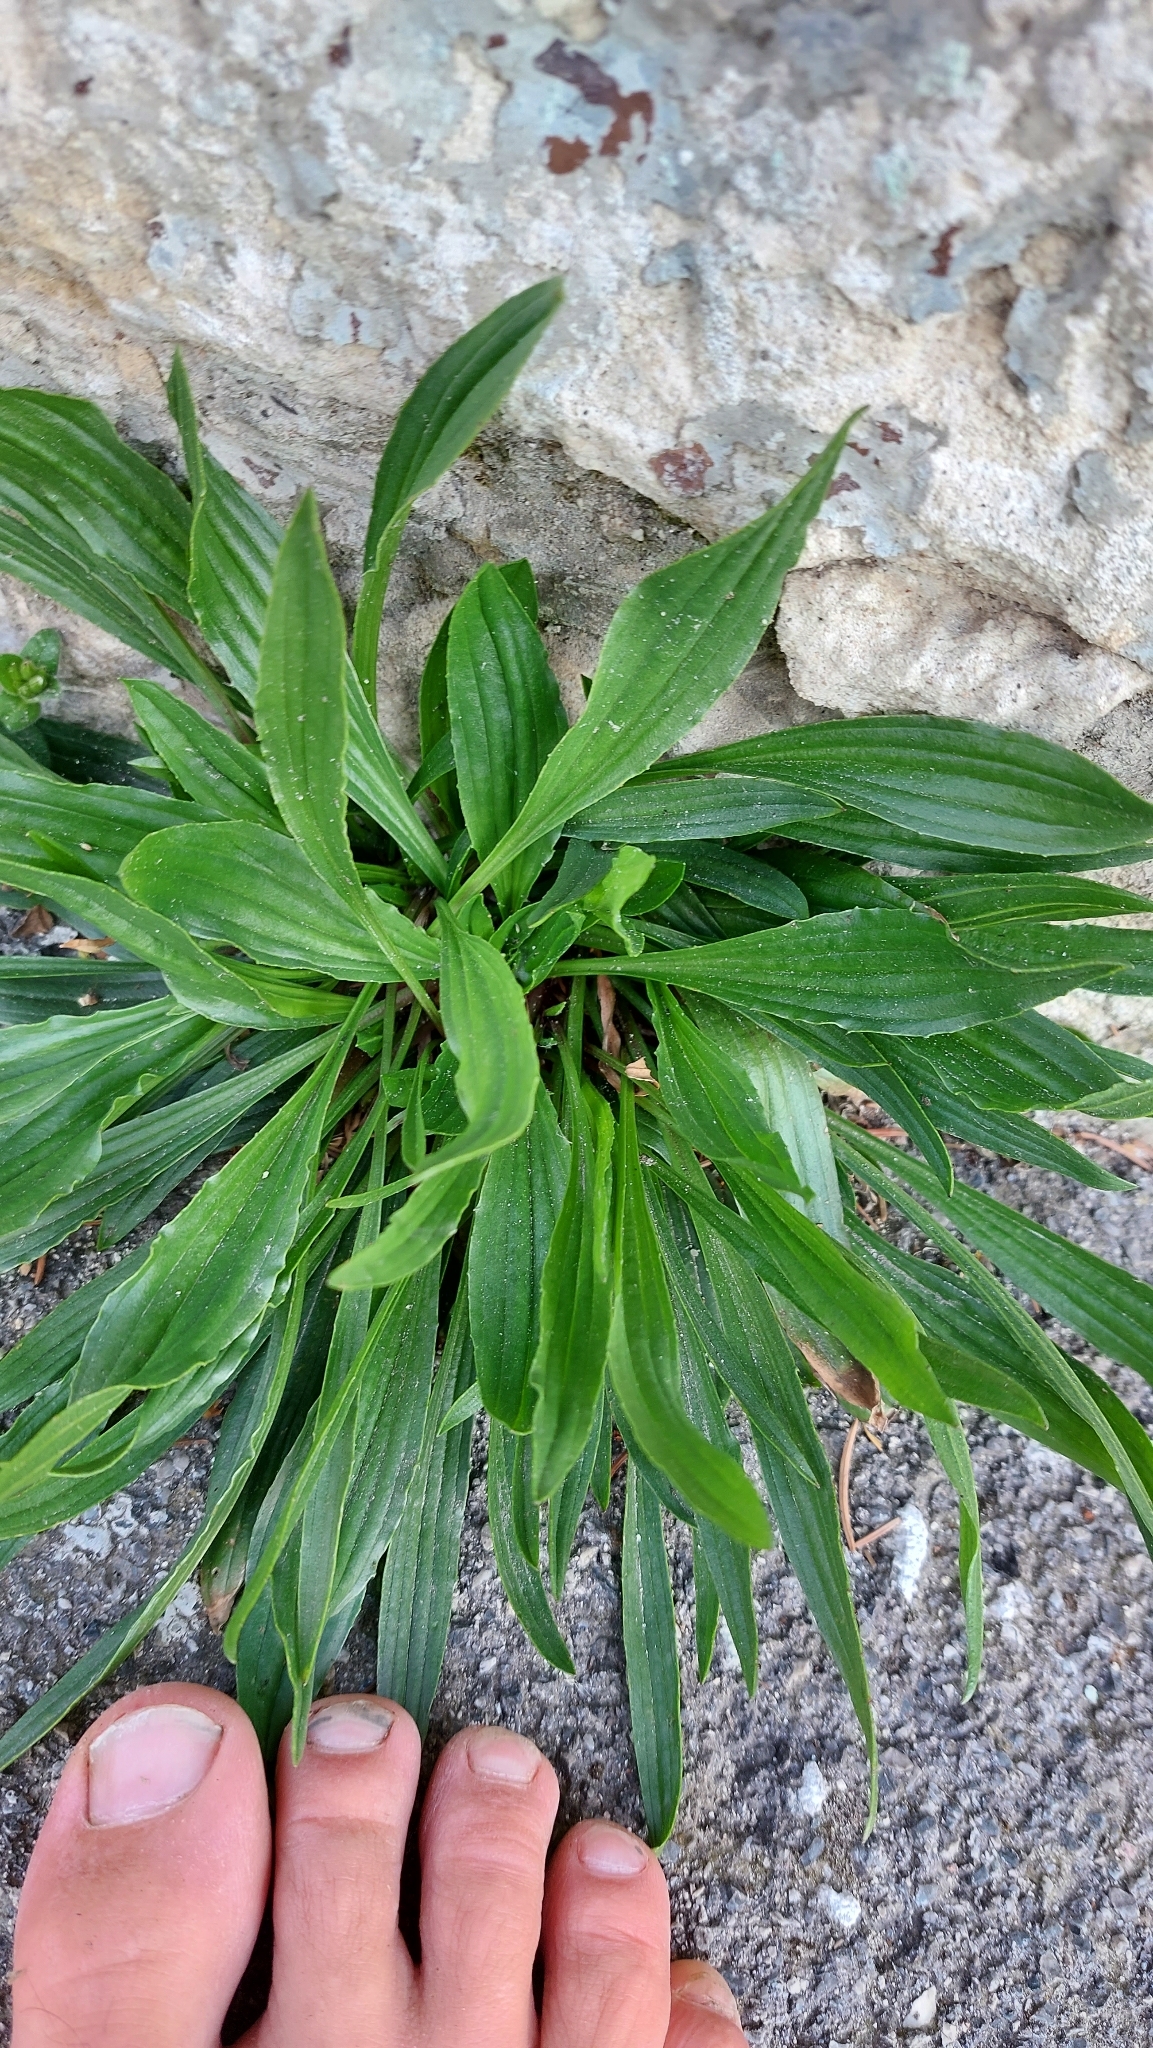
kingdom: Plantae
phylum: Tracheophyta
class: Magnoliopsida
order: Lamiales
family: Plantaginaceae
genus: Plantago
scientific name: Plantago lanceolata
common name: Ribwort plantain
